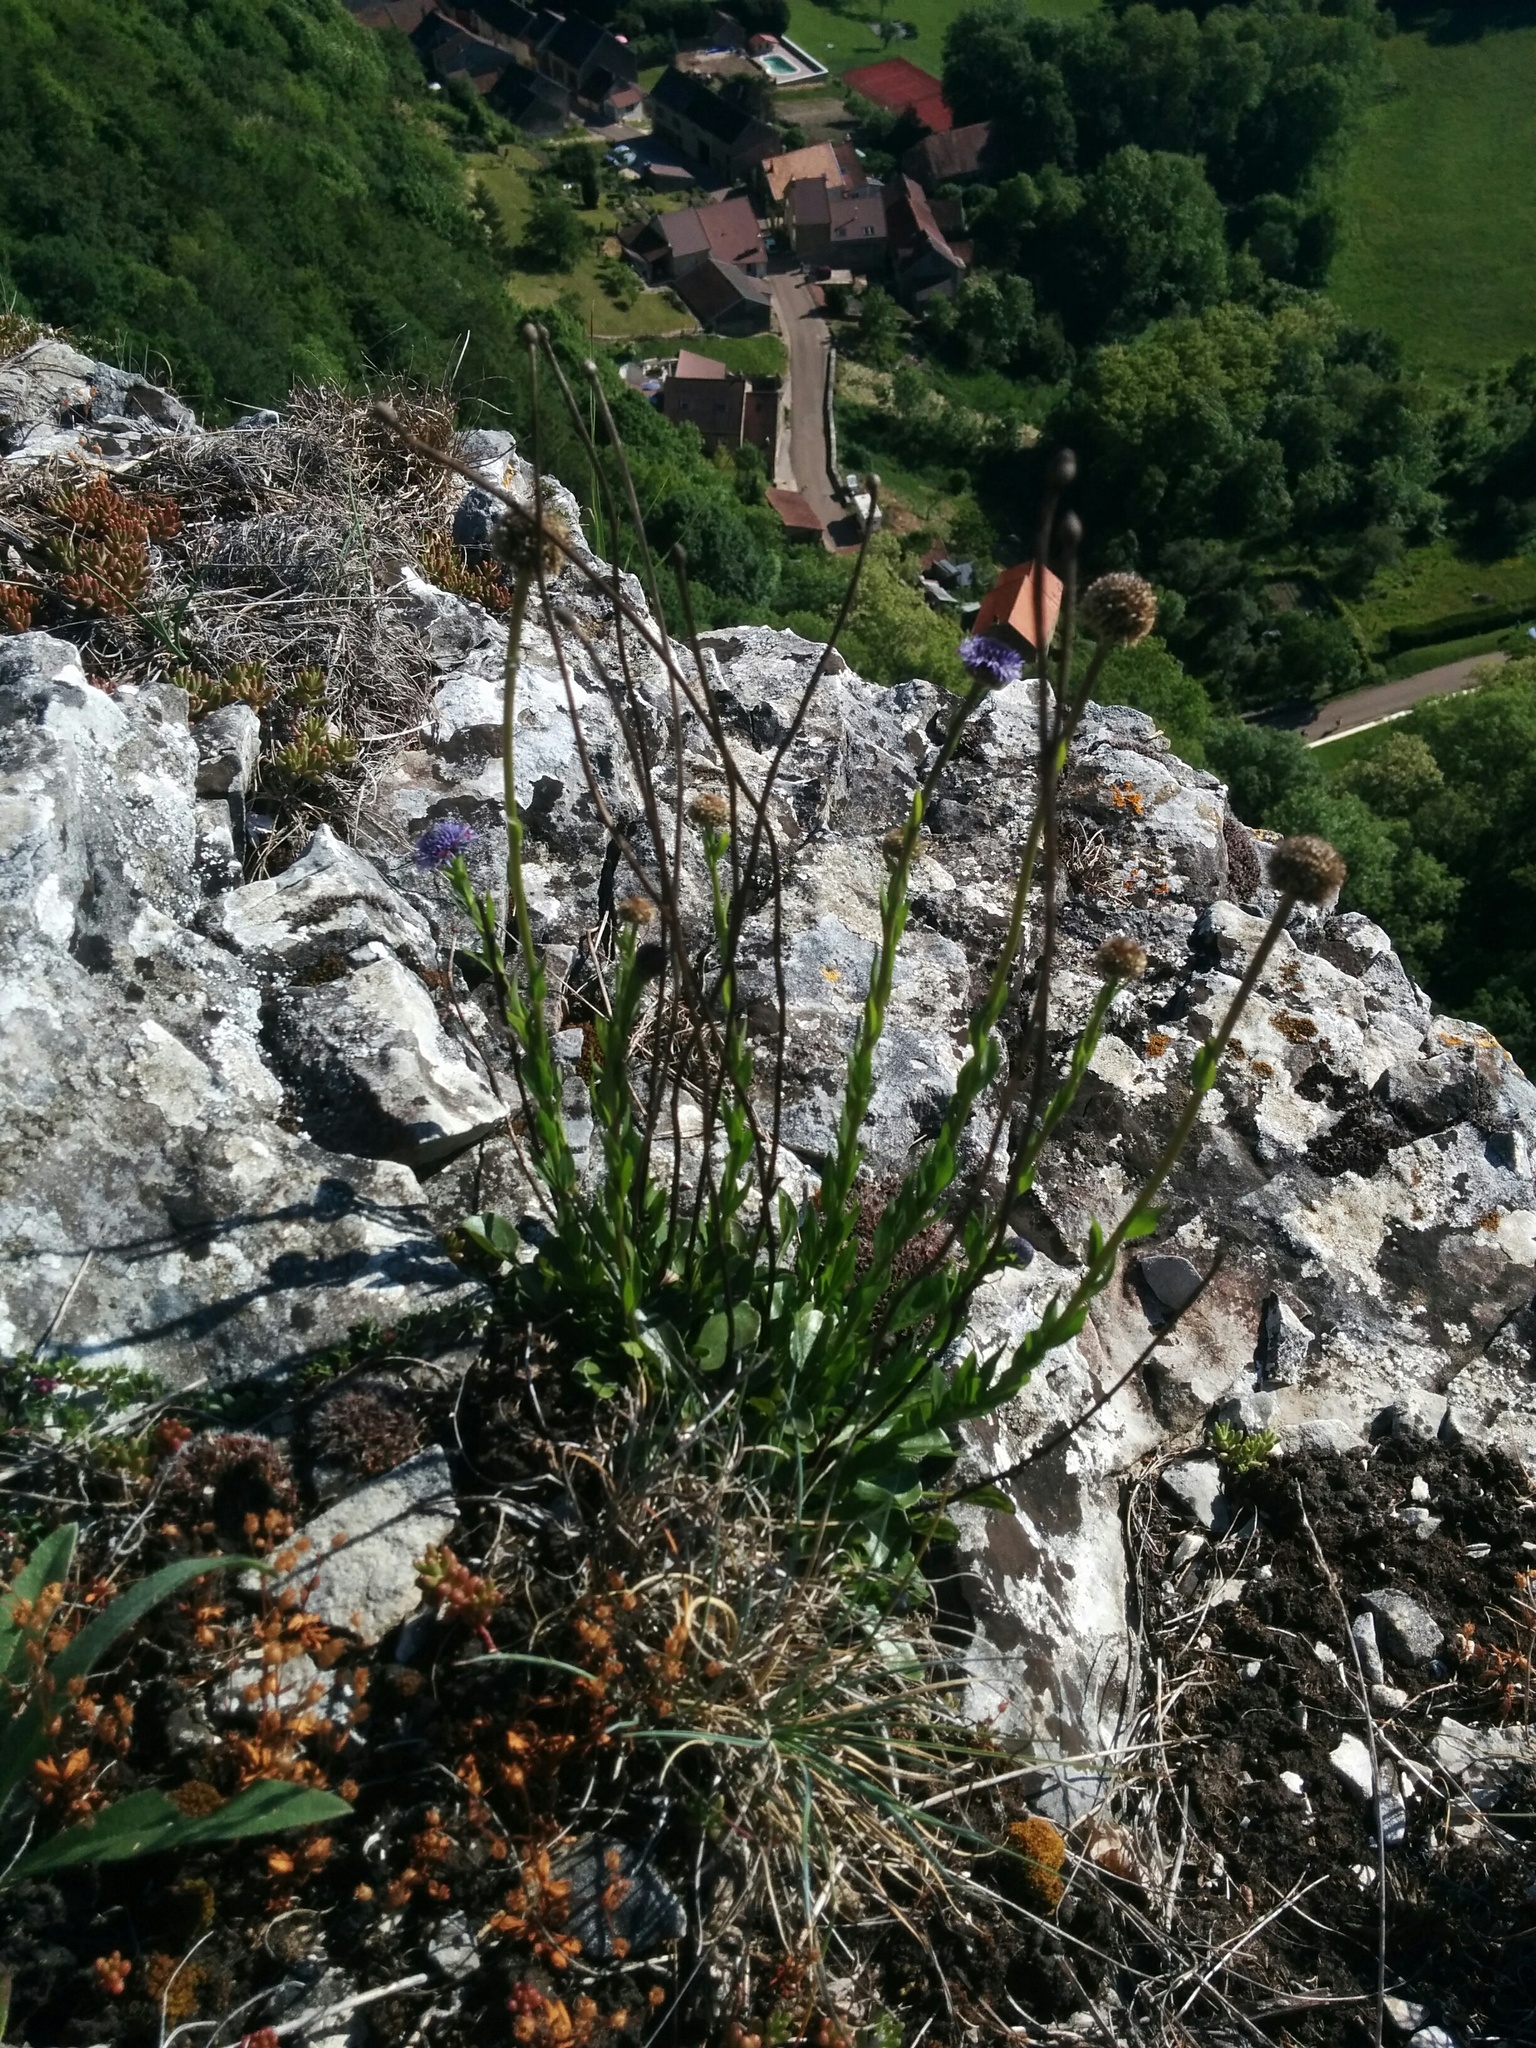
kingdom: Plantae
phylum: Tracheophyta
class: Magnoliopsida
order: Lamiales
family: Plantaginaceae
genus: Globularia
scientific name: Globularia bisnagarica
